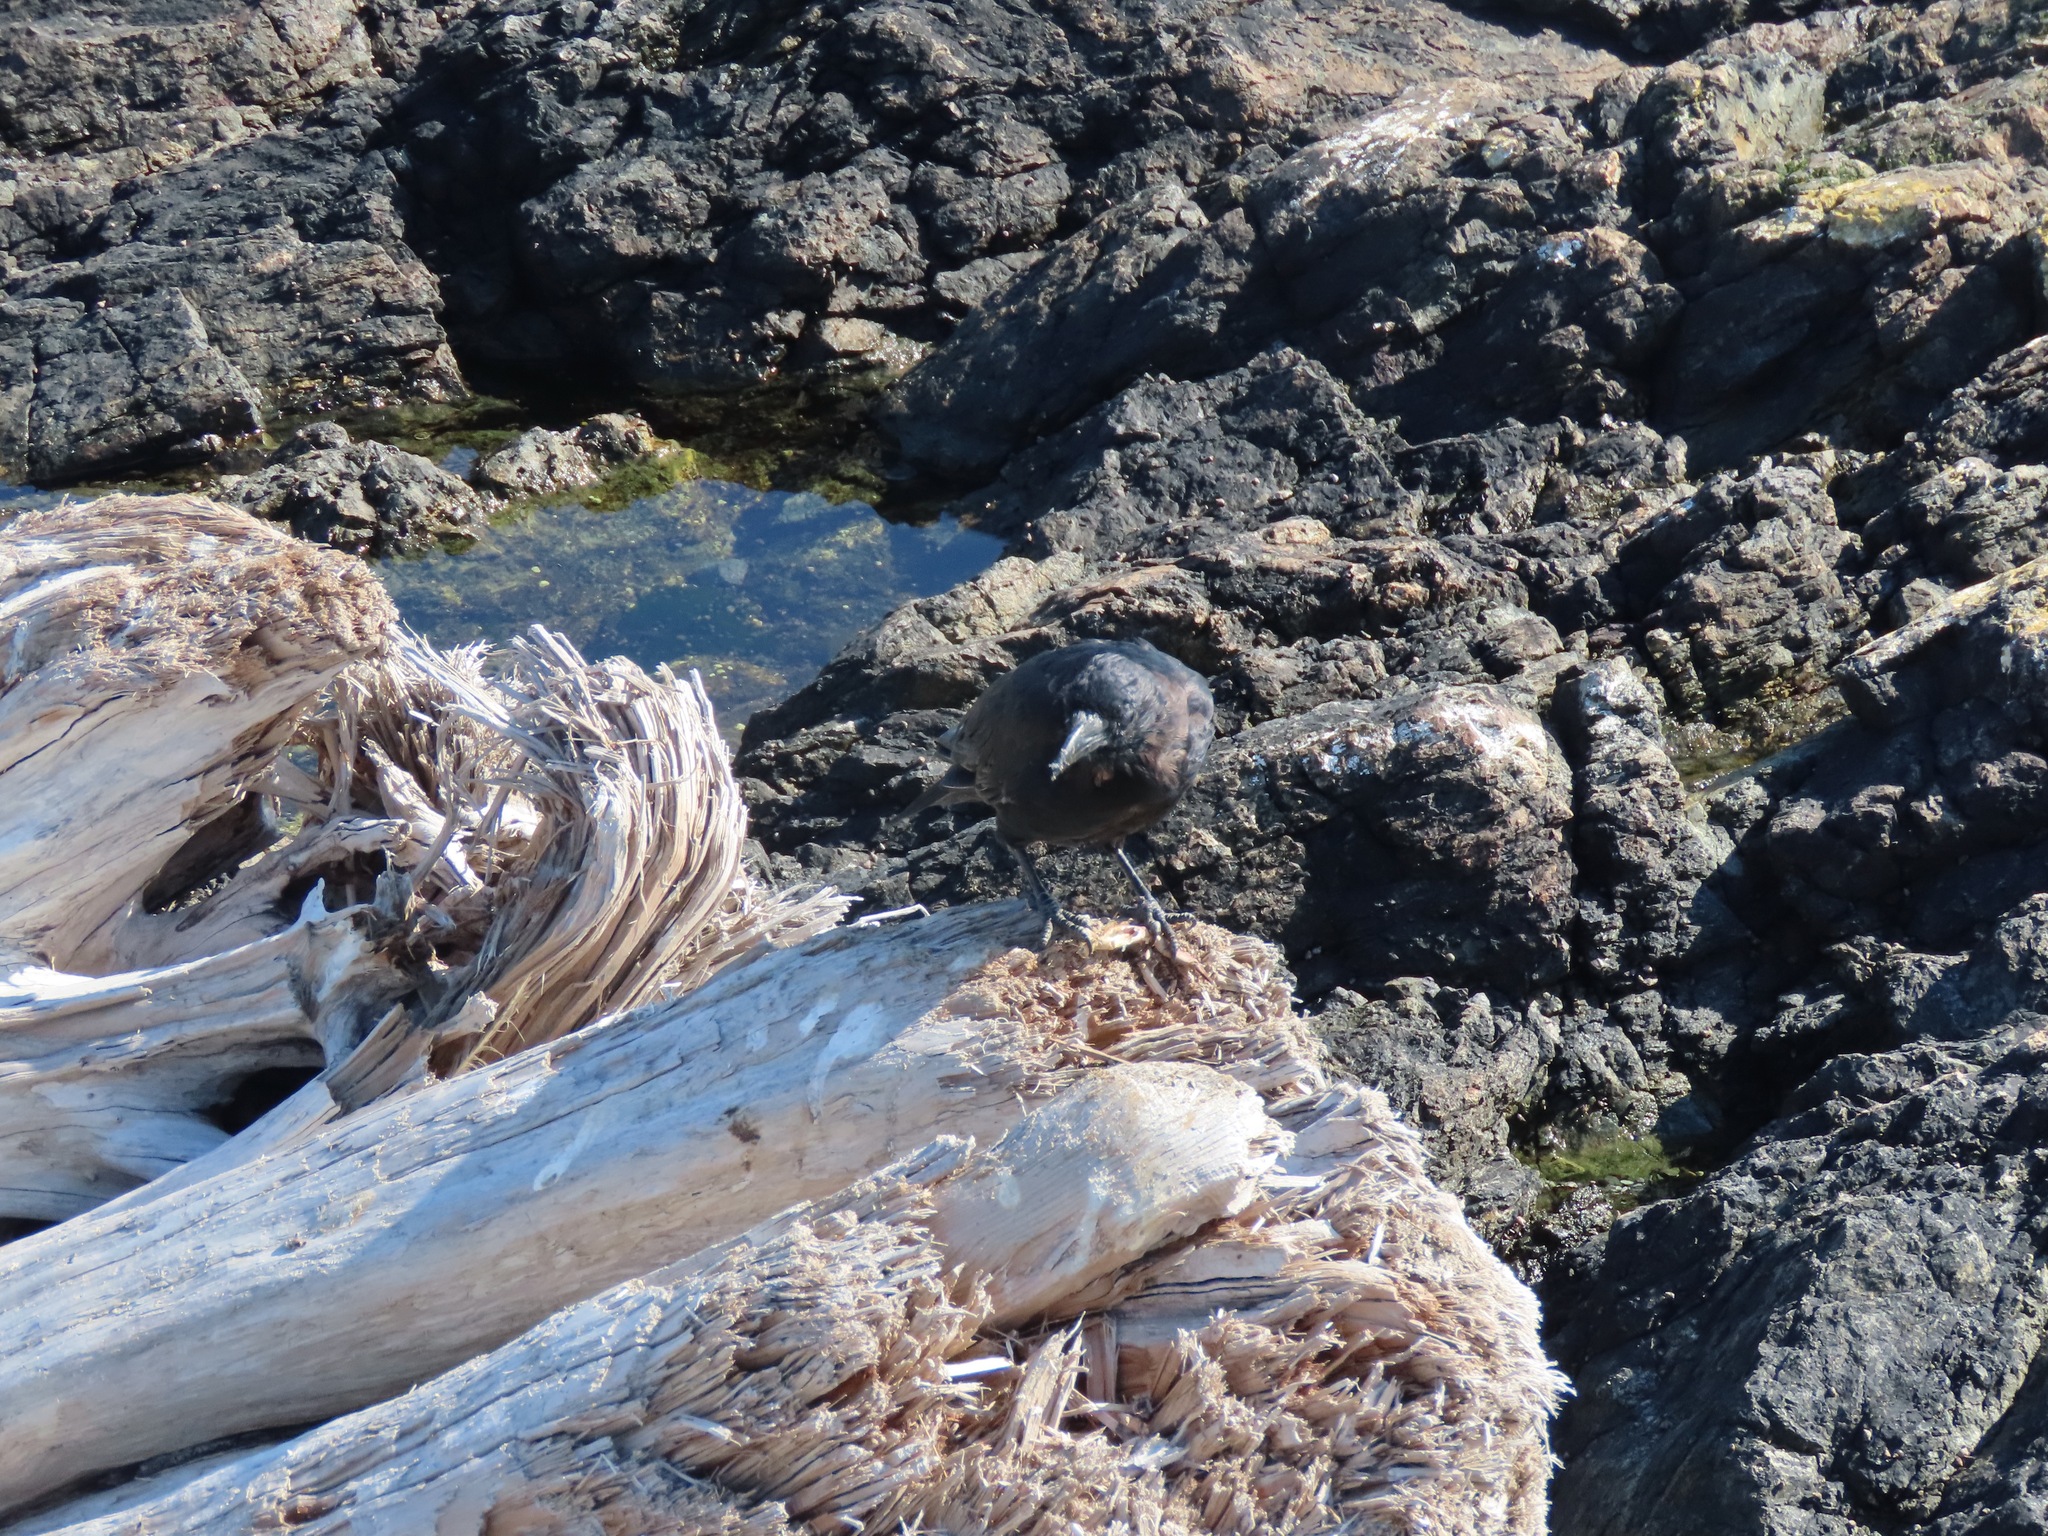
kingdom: Animalia
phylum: Chordata
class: Aves
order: Passeriformes
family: Corvidae
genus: Corvus
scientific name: Corvus brachyrhynchos
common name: American crow
